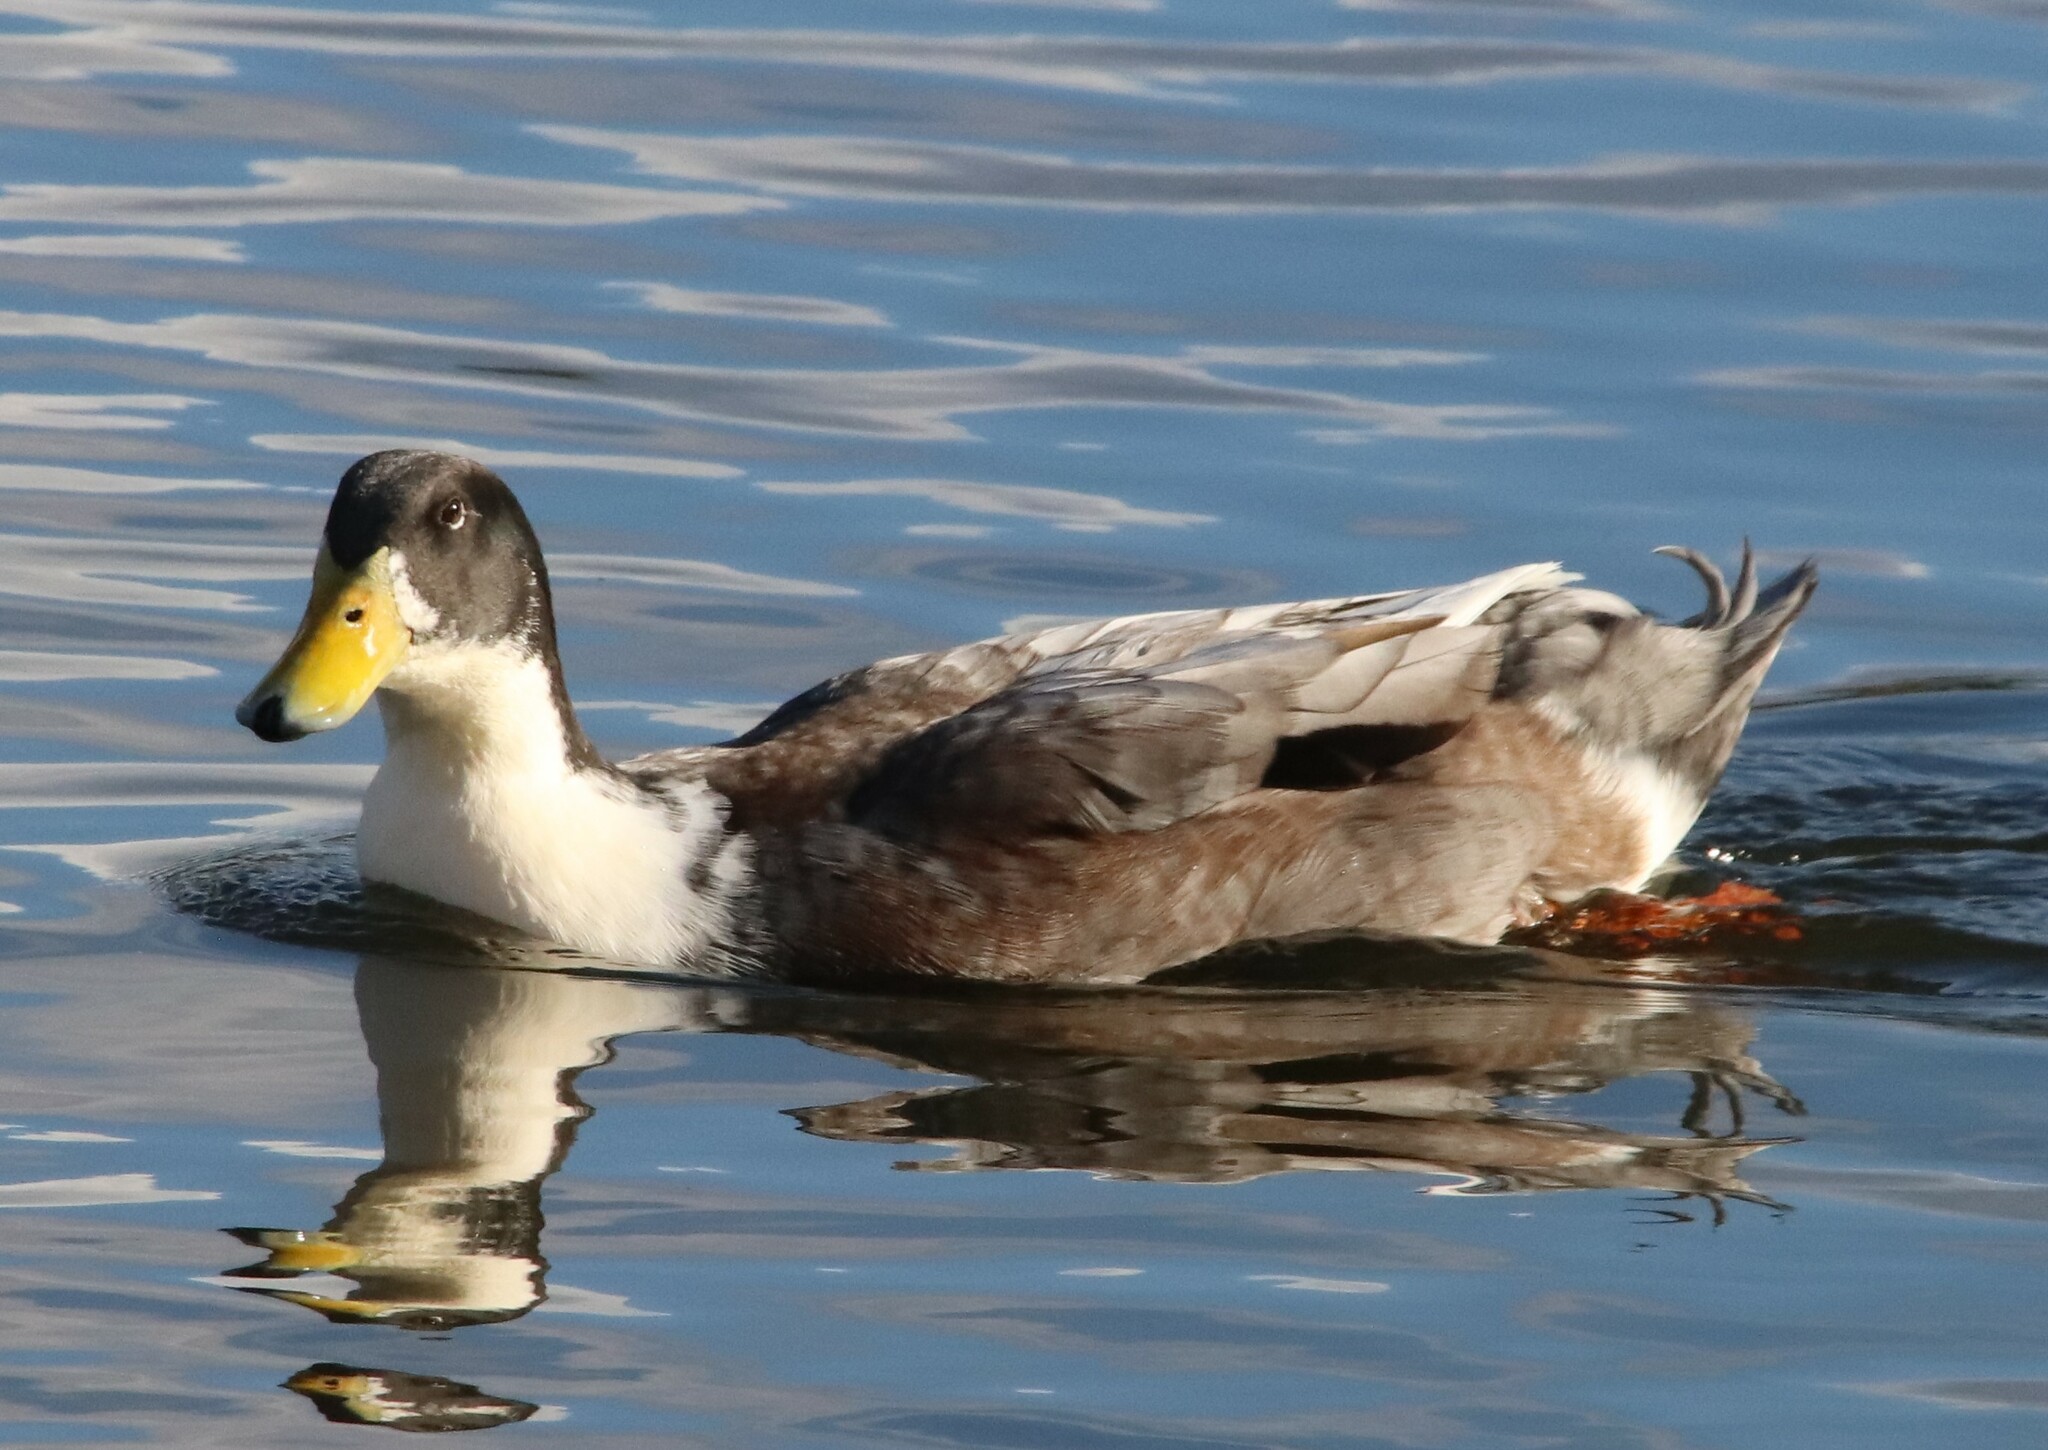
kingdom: Animalia
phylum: Chordata
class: Aves
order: Anseriformes
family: Anatidae
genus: Anas
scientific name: Anas platyrhynchos
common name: Mallard
